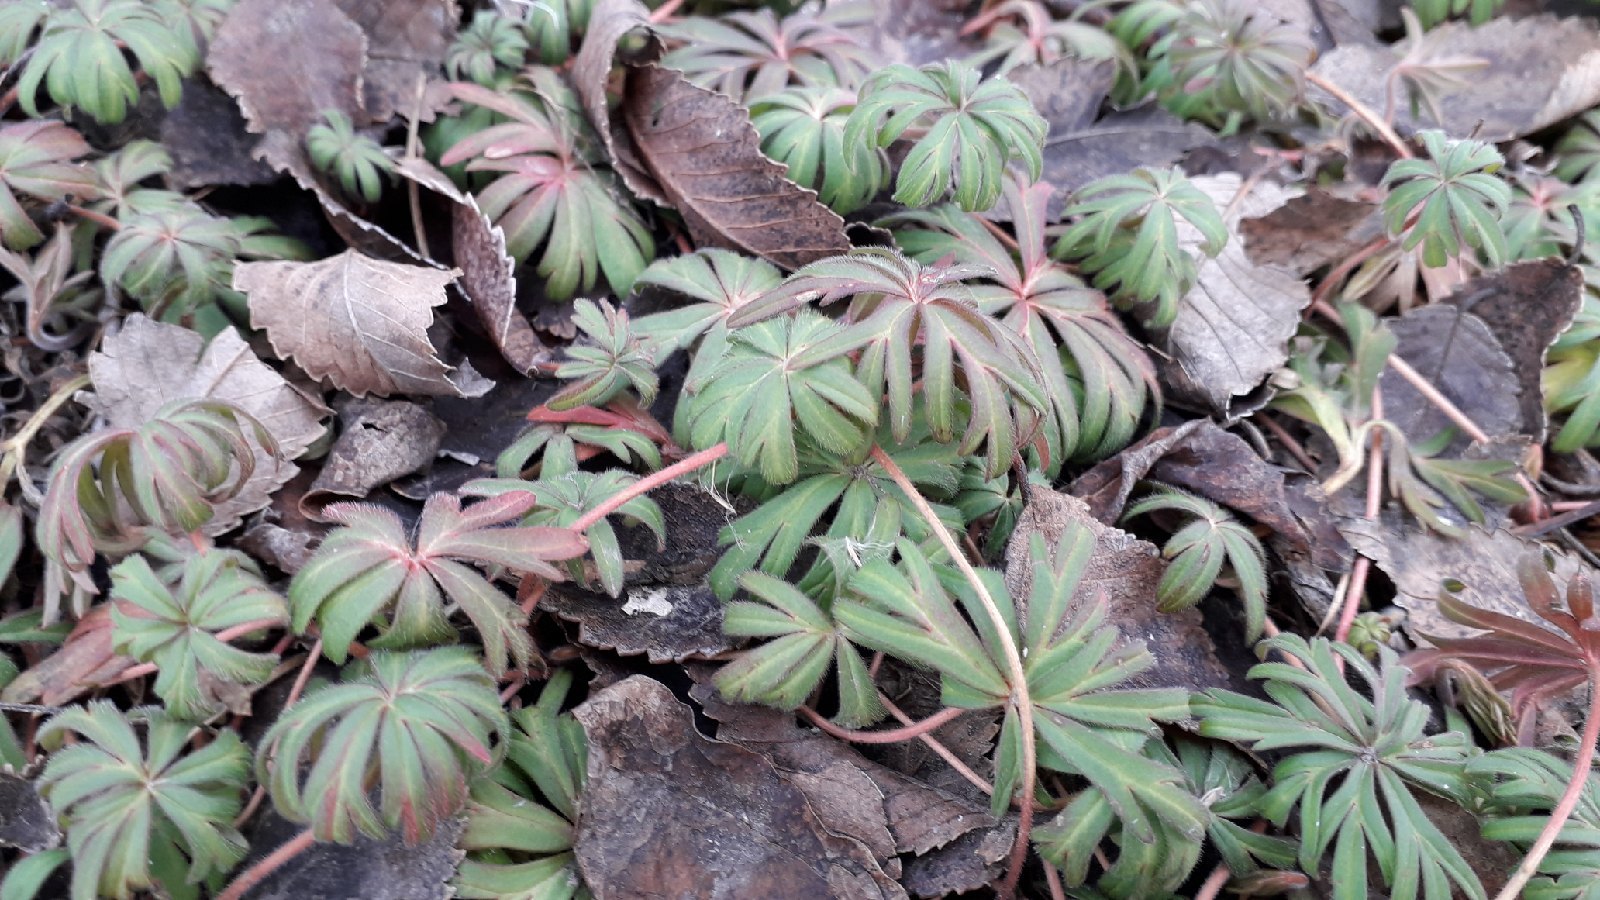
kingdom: Plantae
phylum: Tracheophyta
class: Magnoliopsida
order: Geraniales
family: Geraniaceae
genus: Geranium
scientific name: Geranium linearilobum
